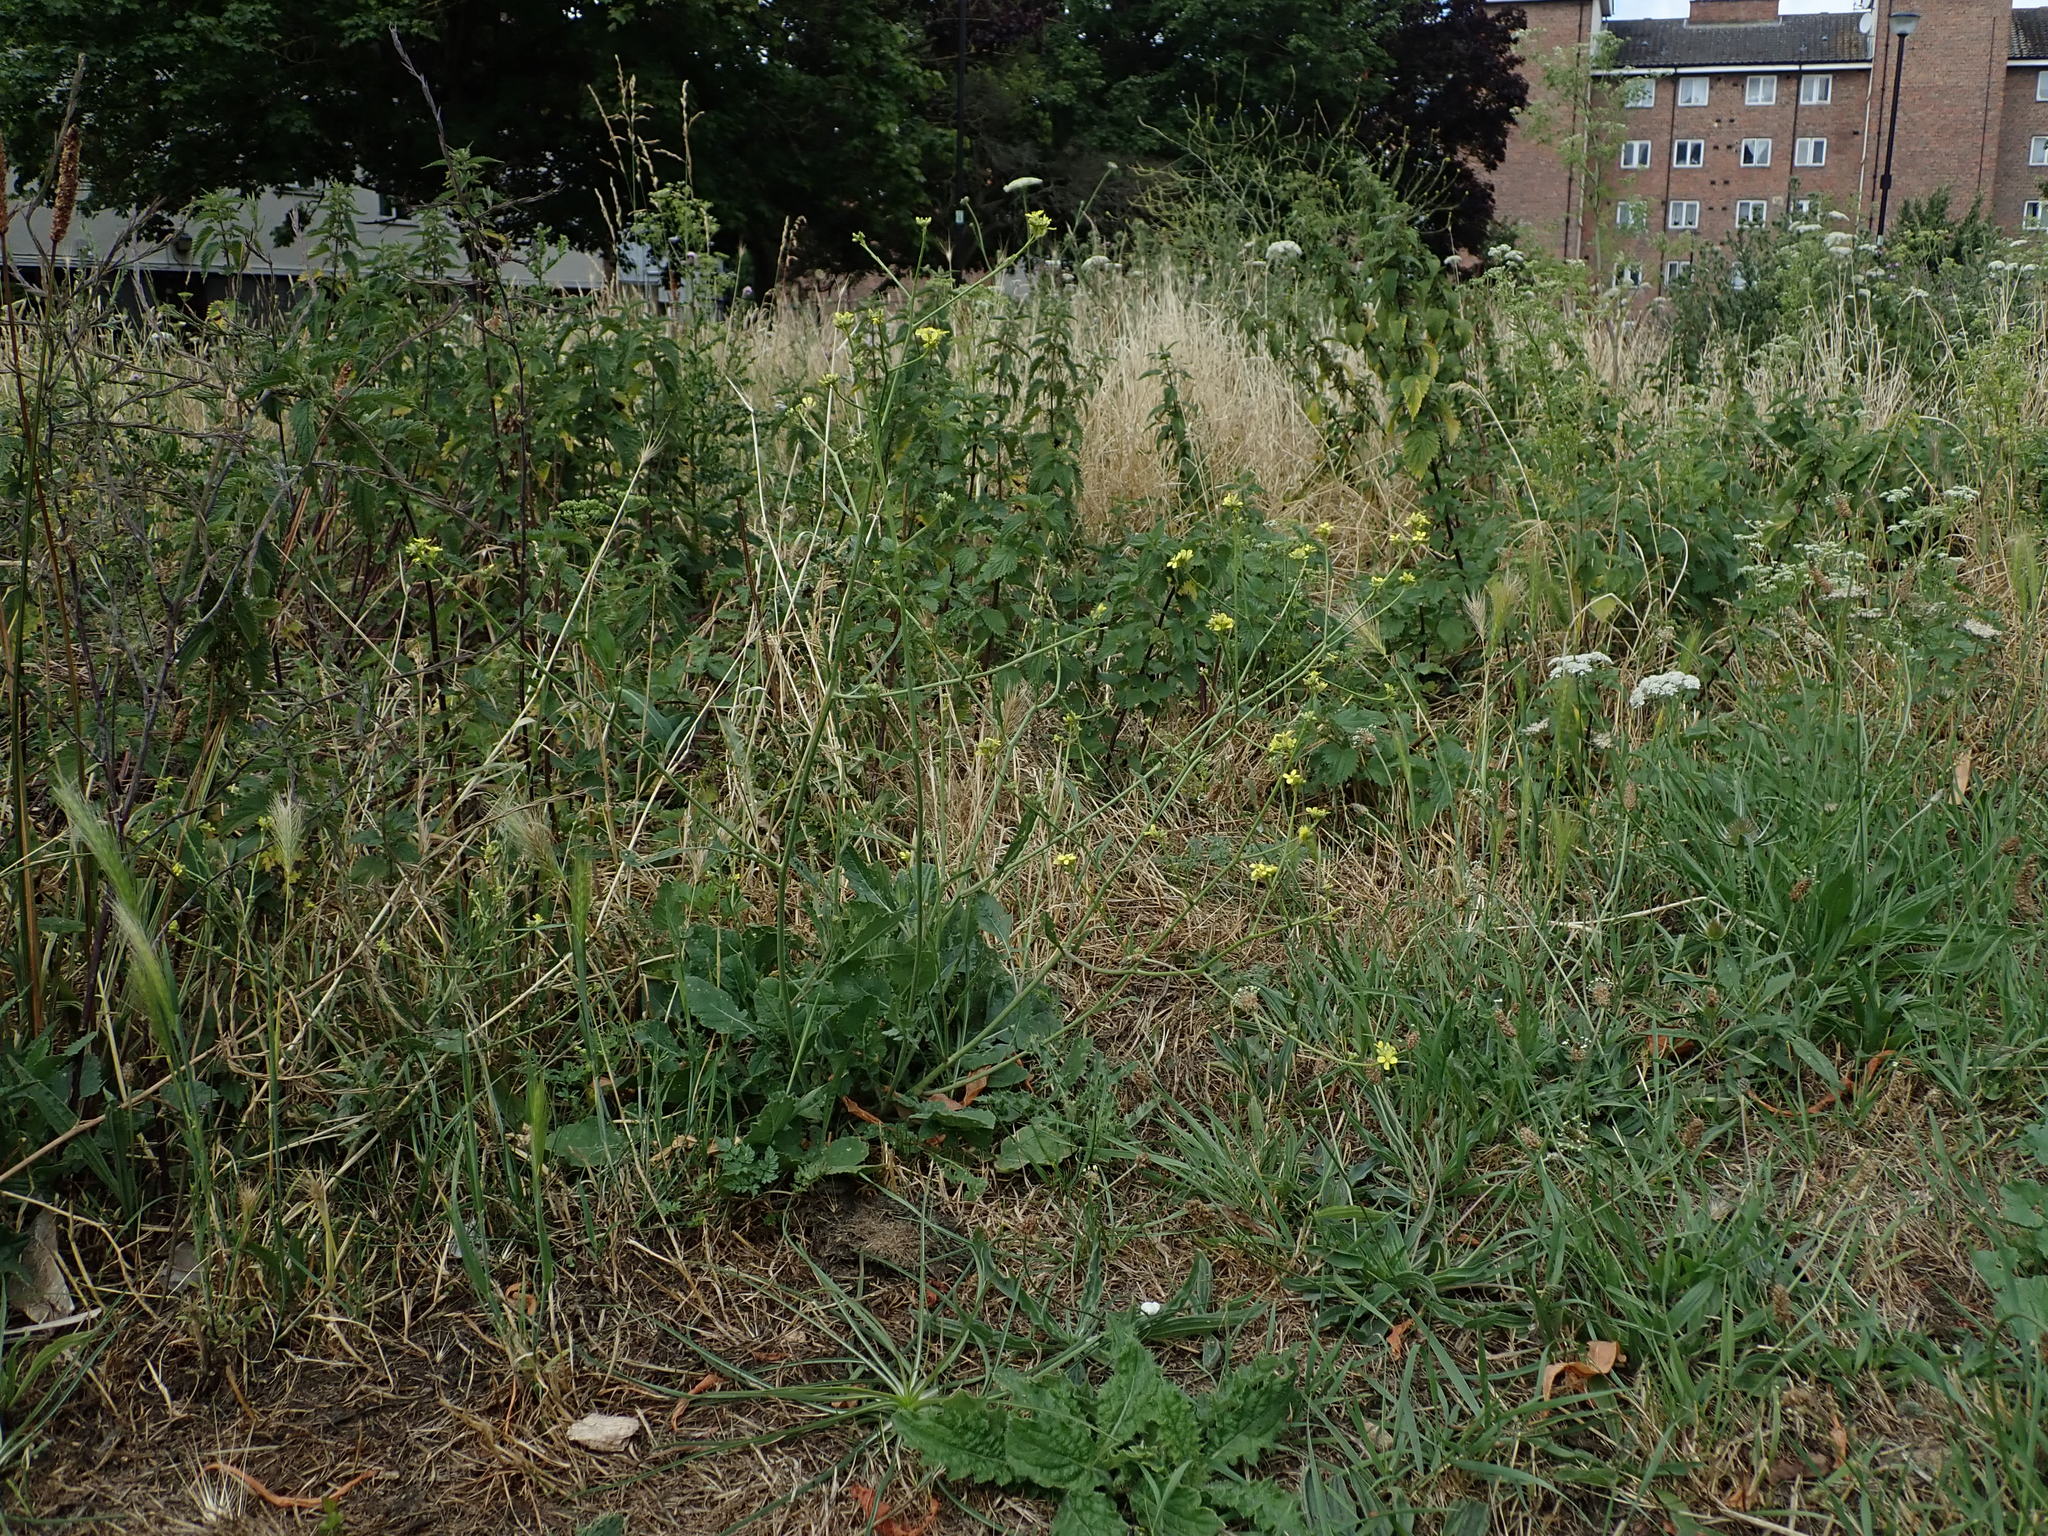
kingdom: Plantae
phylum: Tracheophyta
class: Magnoliopsida
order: Brassicales
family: Brassicaceae
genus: Hirschfeldia
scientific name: Hirschfeldia incana
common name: Hoary mustard
